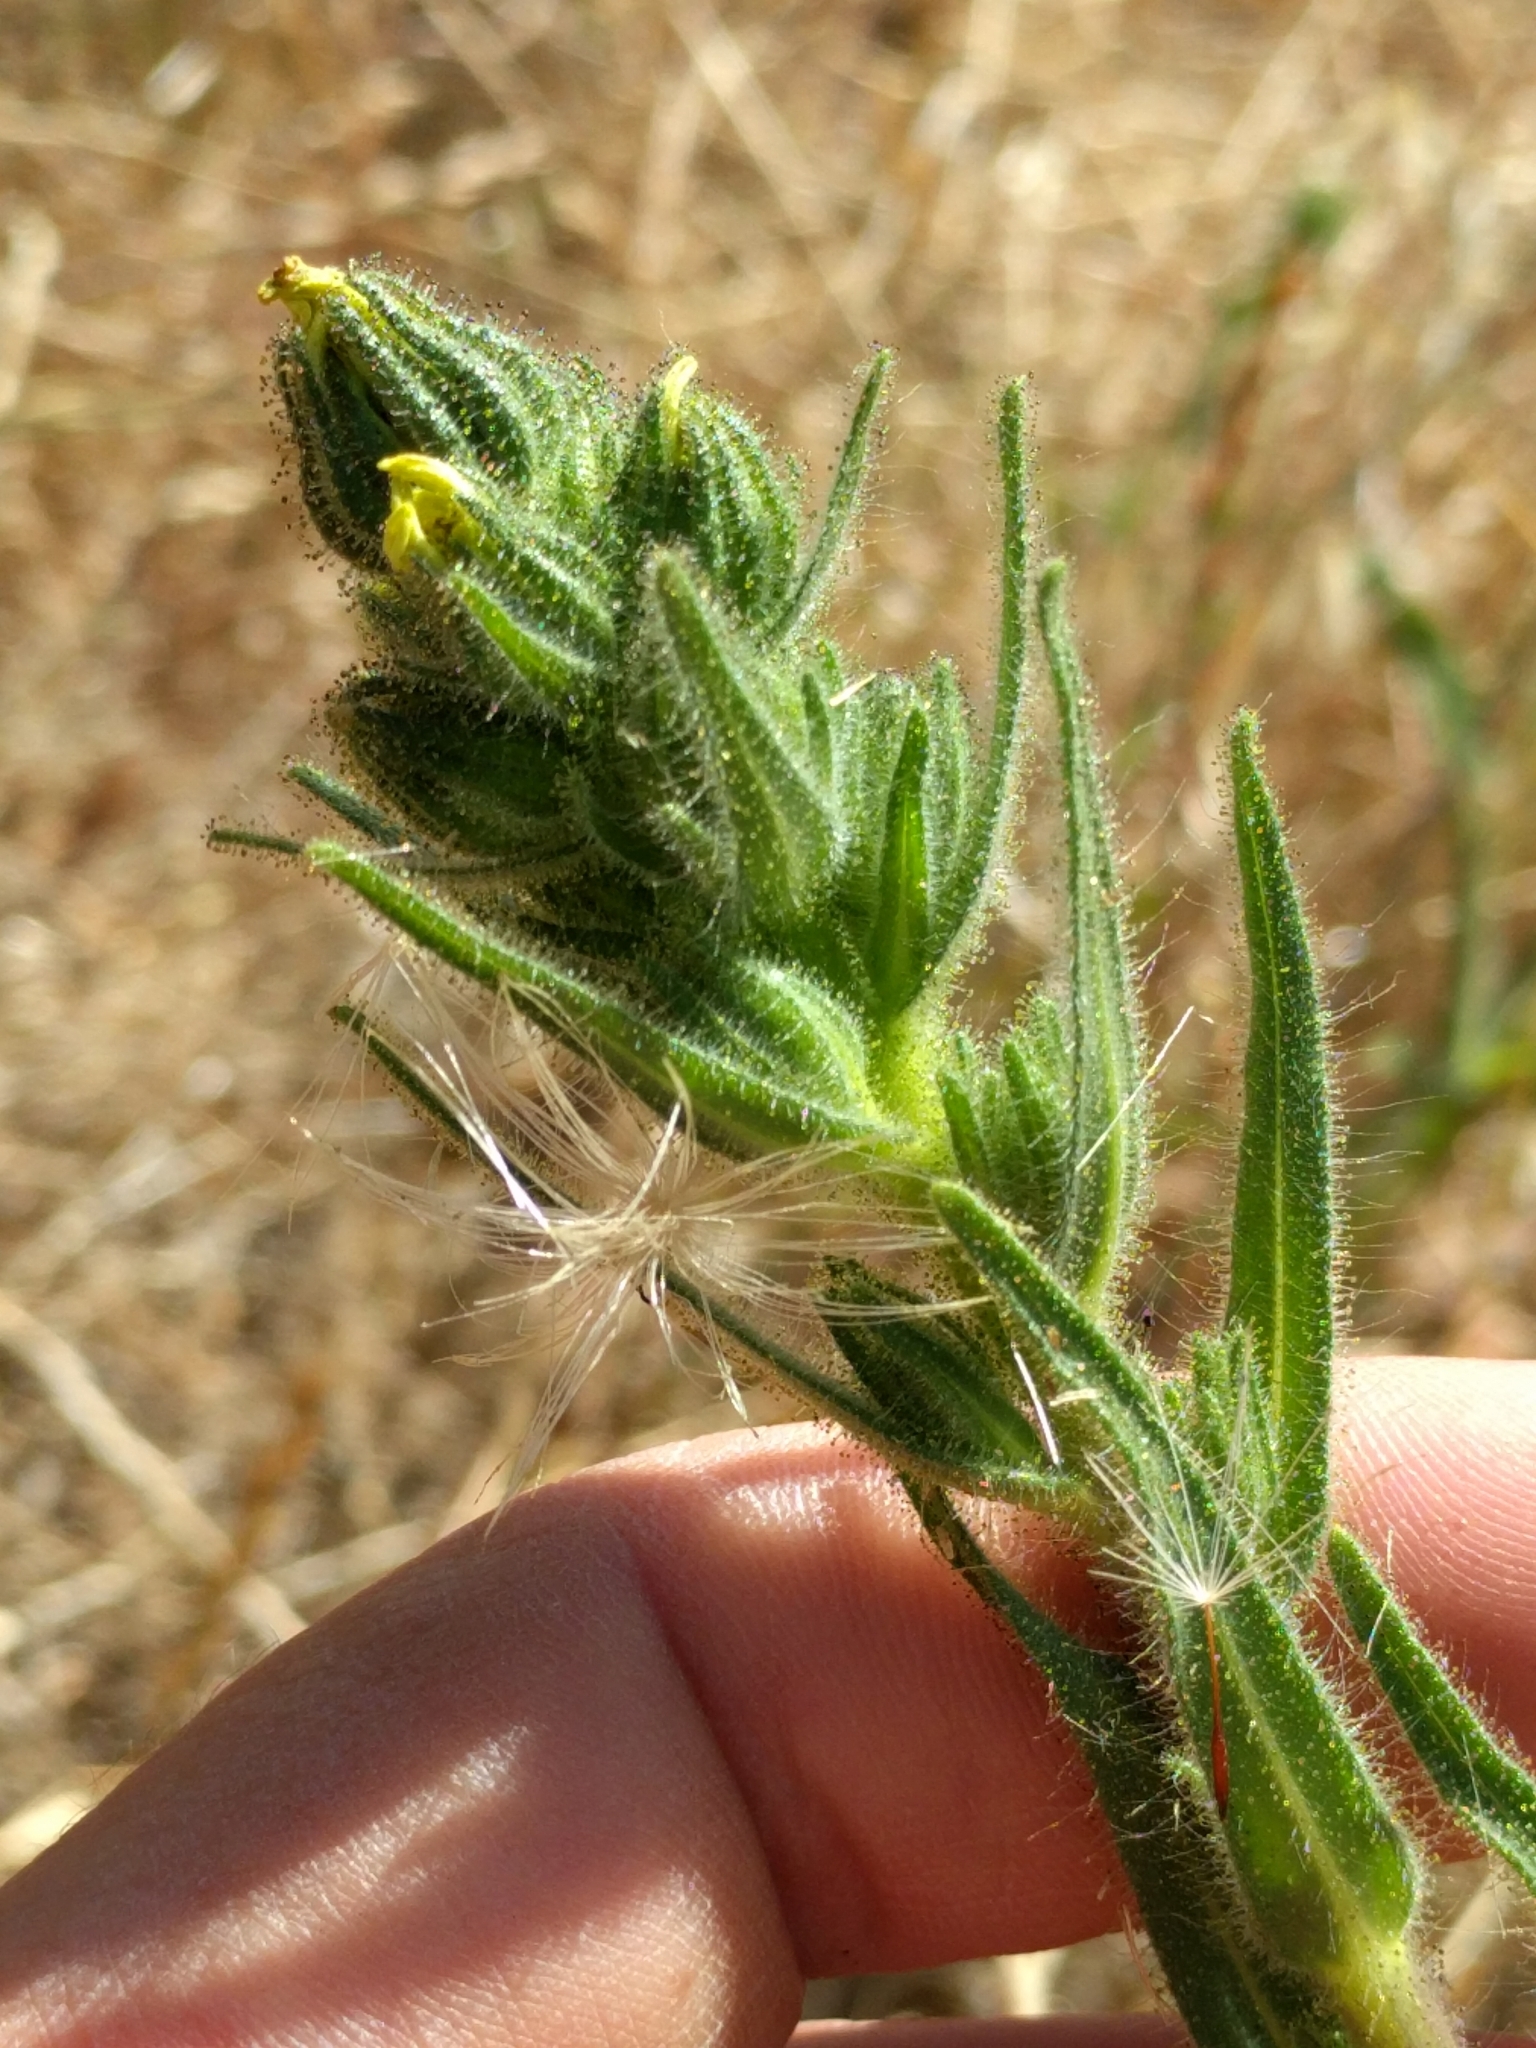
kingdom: Plantae
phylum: Tracheophyta
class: Magnoliopsida
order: Asterales
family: Asteraceae
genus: Madia
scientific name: Madia sativa
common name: Coast tarweed
